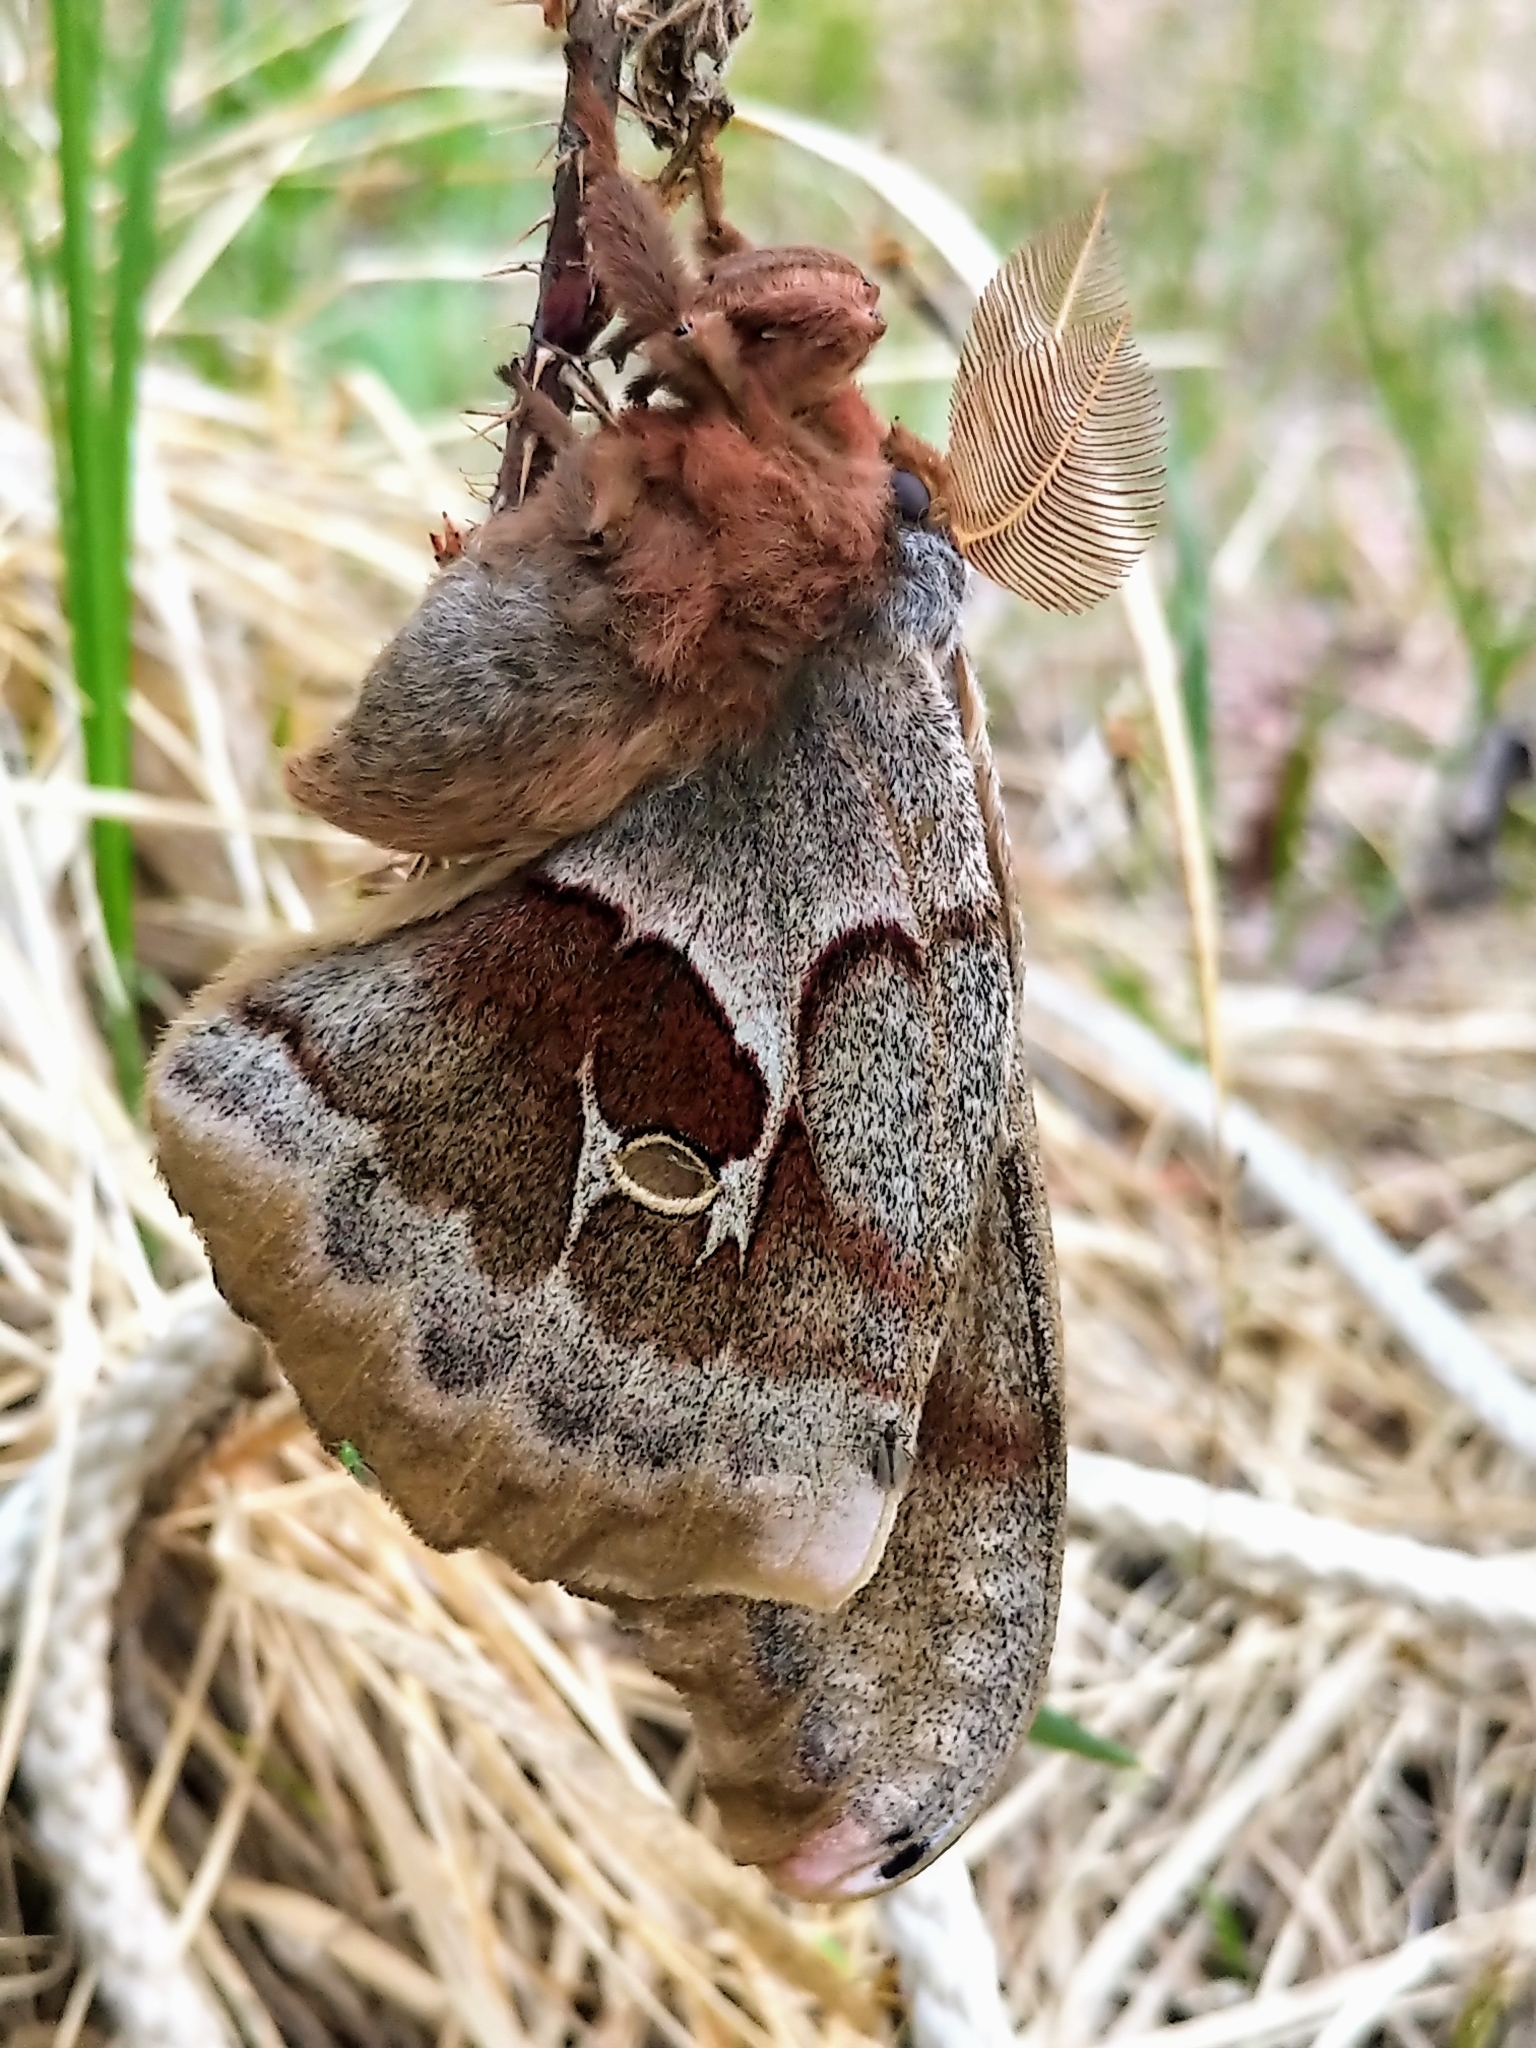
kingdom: Animalia
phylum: Arthropoda
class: Insecta
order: Lepidoptera
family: Saturniidae
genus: Antheraea
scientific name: Antheraea polyphemus
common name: Polyphemus moth
